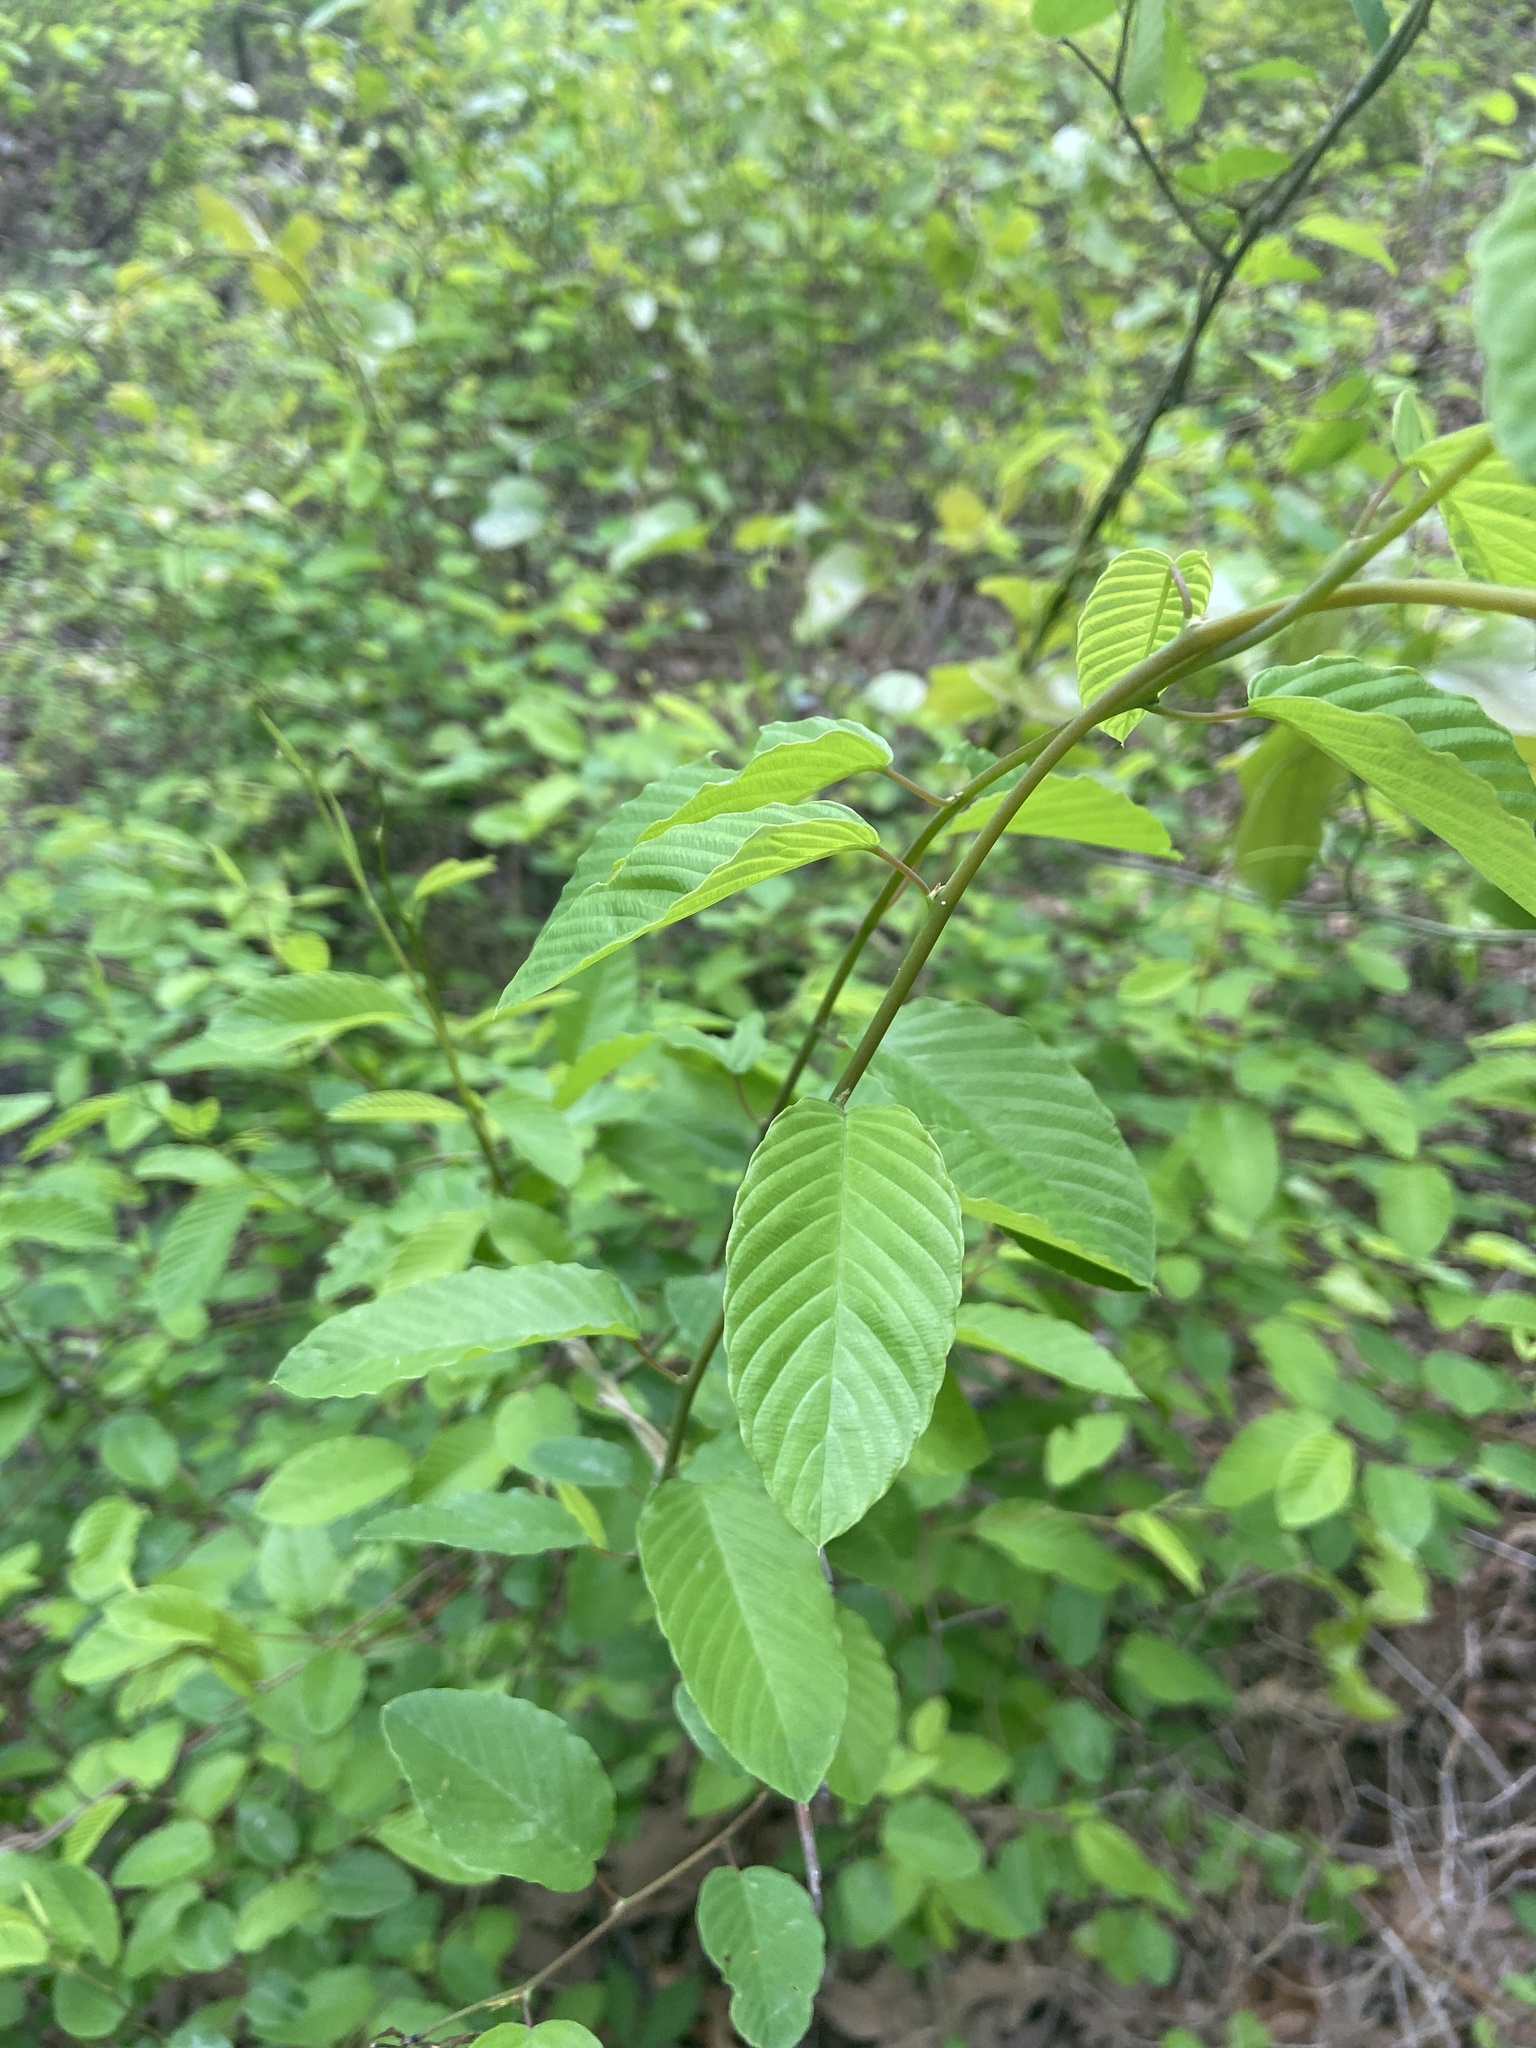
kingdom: Plantae
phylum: Tracheophyta
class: Magnoliopsida
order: Rosales
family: Rhamnaceae
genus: Berchemia
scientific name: Berchemia scandens
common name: Supplejack
